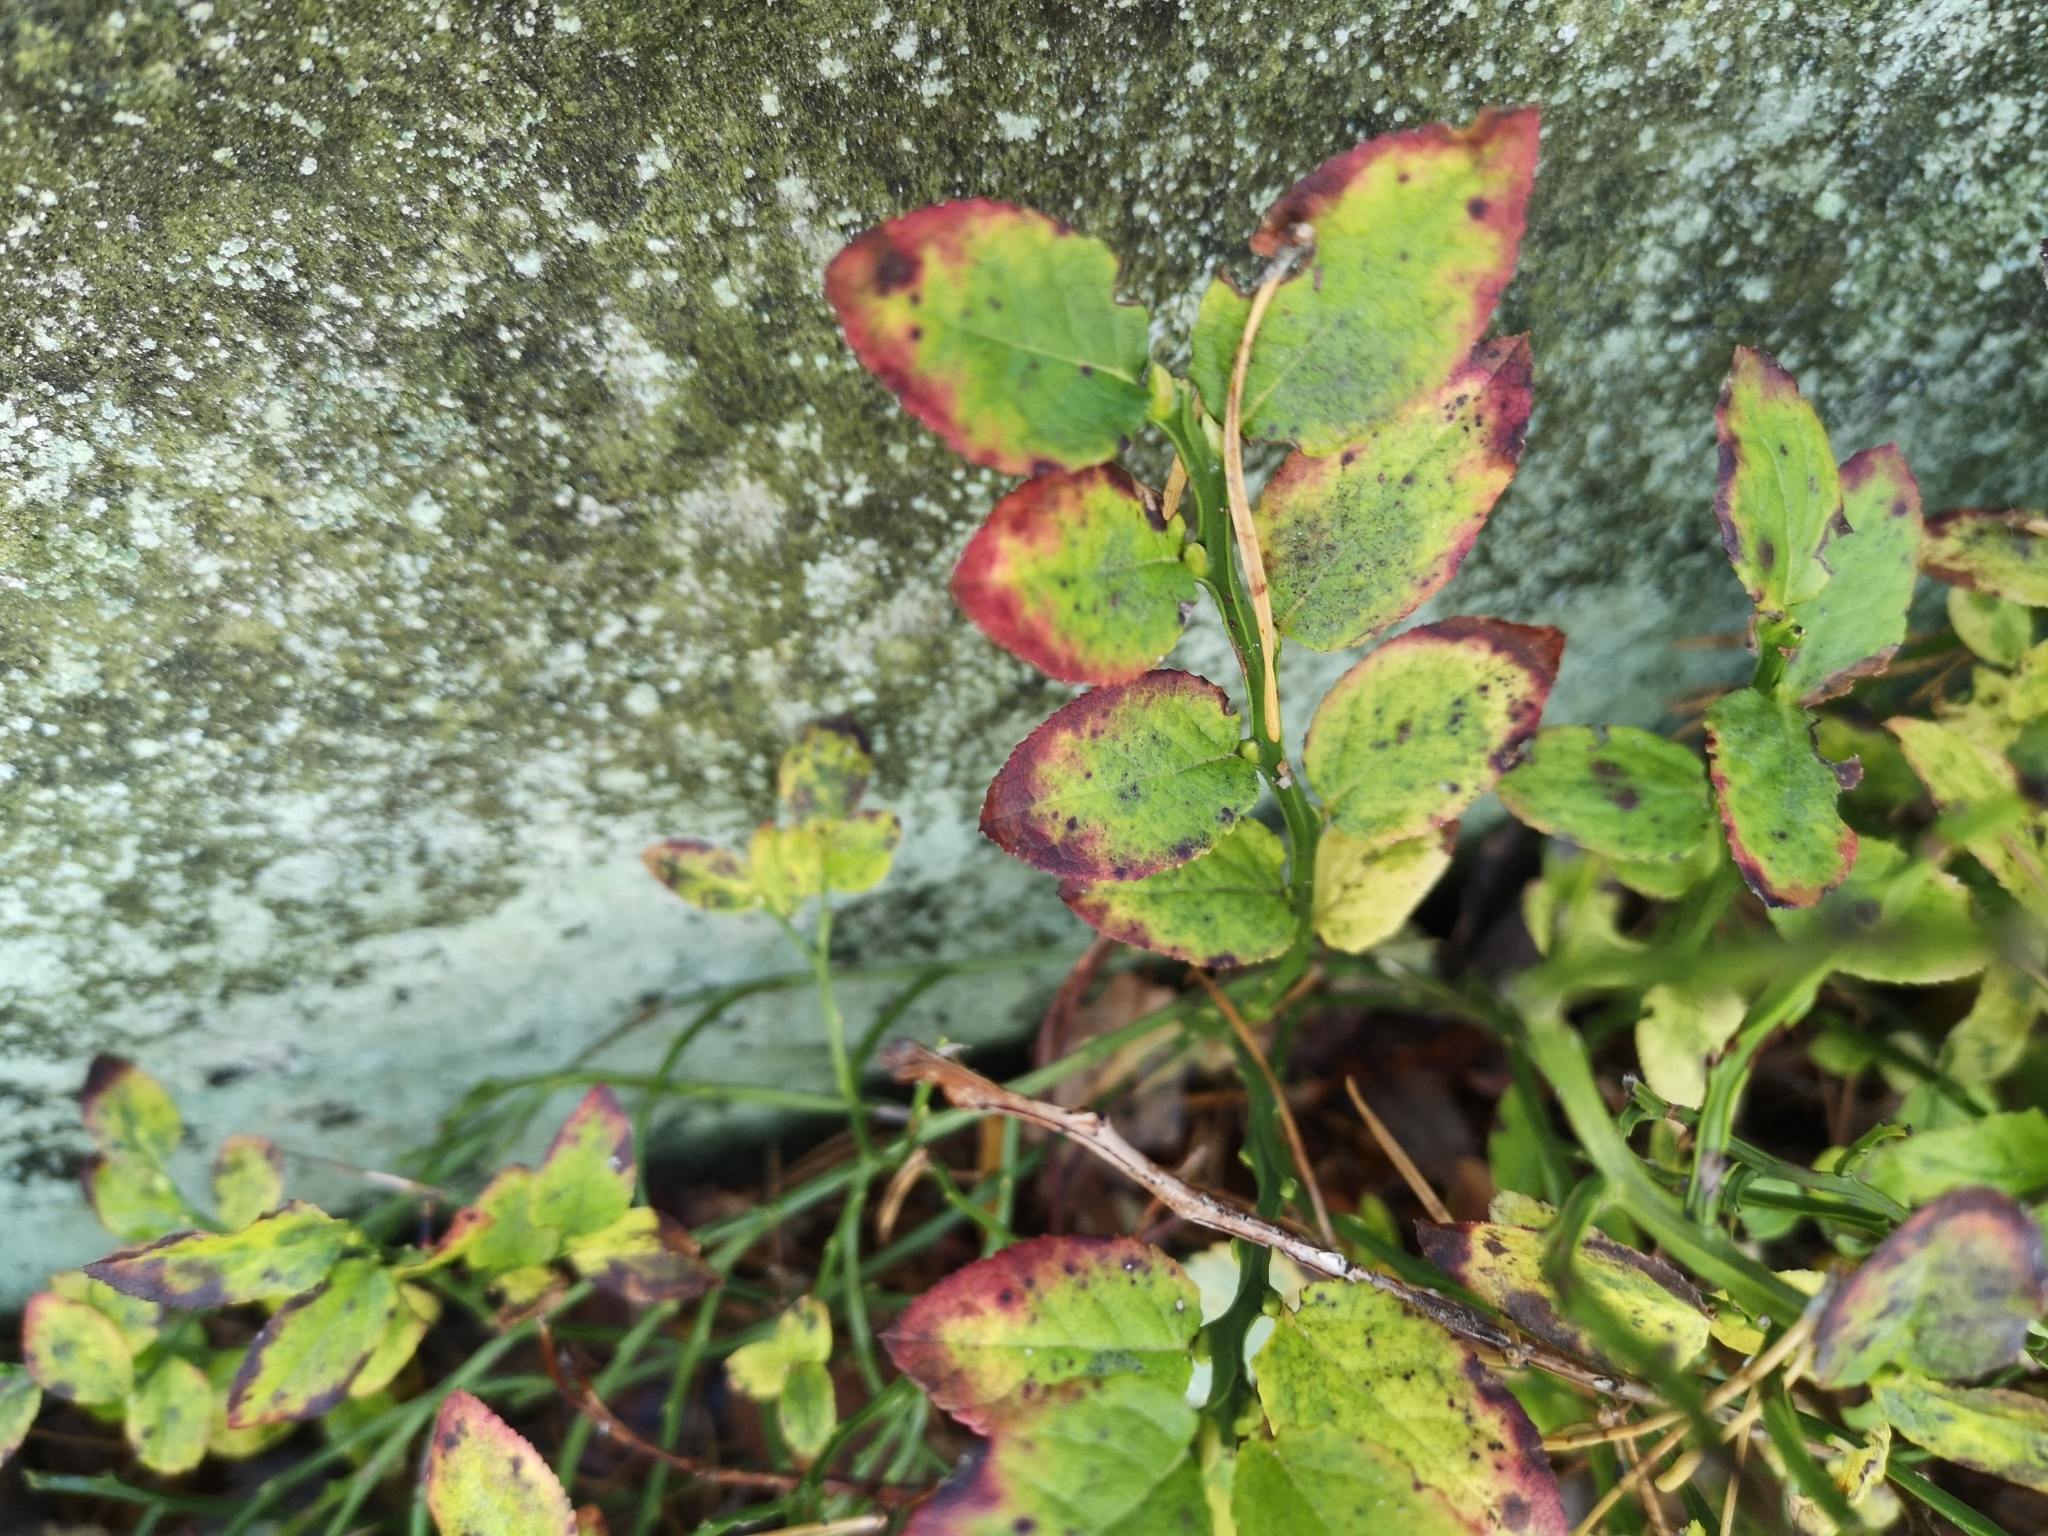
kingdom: Plantae
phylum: Tracheophyta
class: Magnoliopsida
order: Ericales
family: Ericaceae
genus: Vaccinium
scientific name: Vaccinium myrtillus
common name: Bilberry
